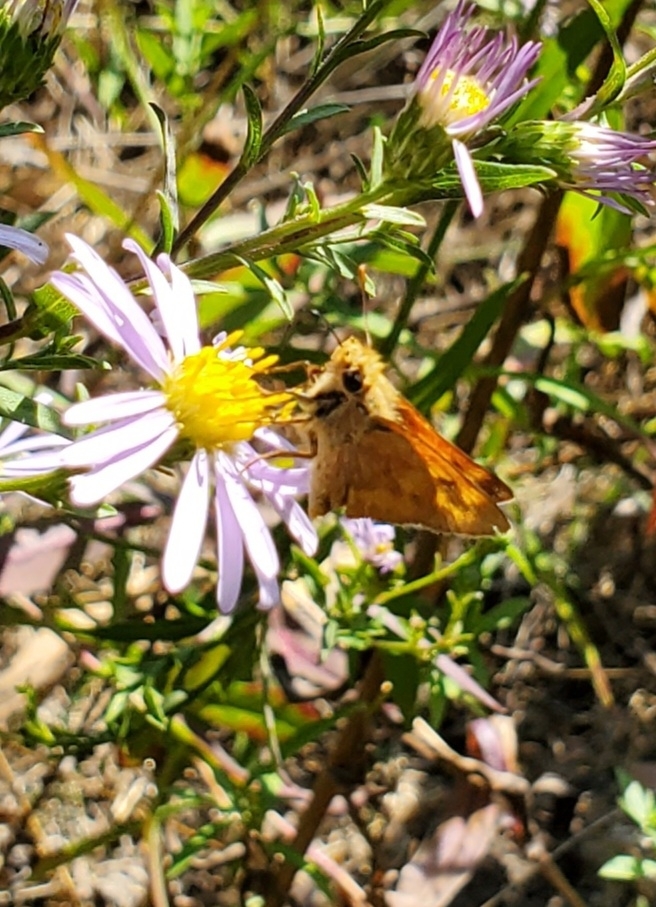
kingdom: Animalia
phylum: Arthropoda
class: Insecta
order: Lepidoptera
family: Hesperiidae
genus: Ochlodes
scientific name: Ochlodes sylvanoides
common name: Woodland skipper
